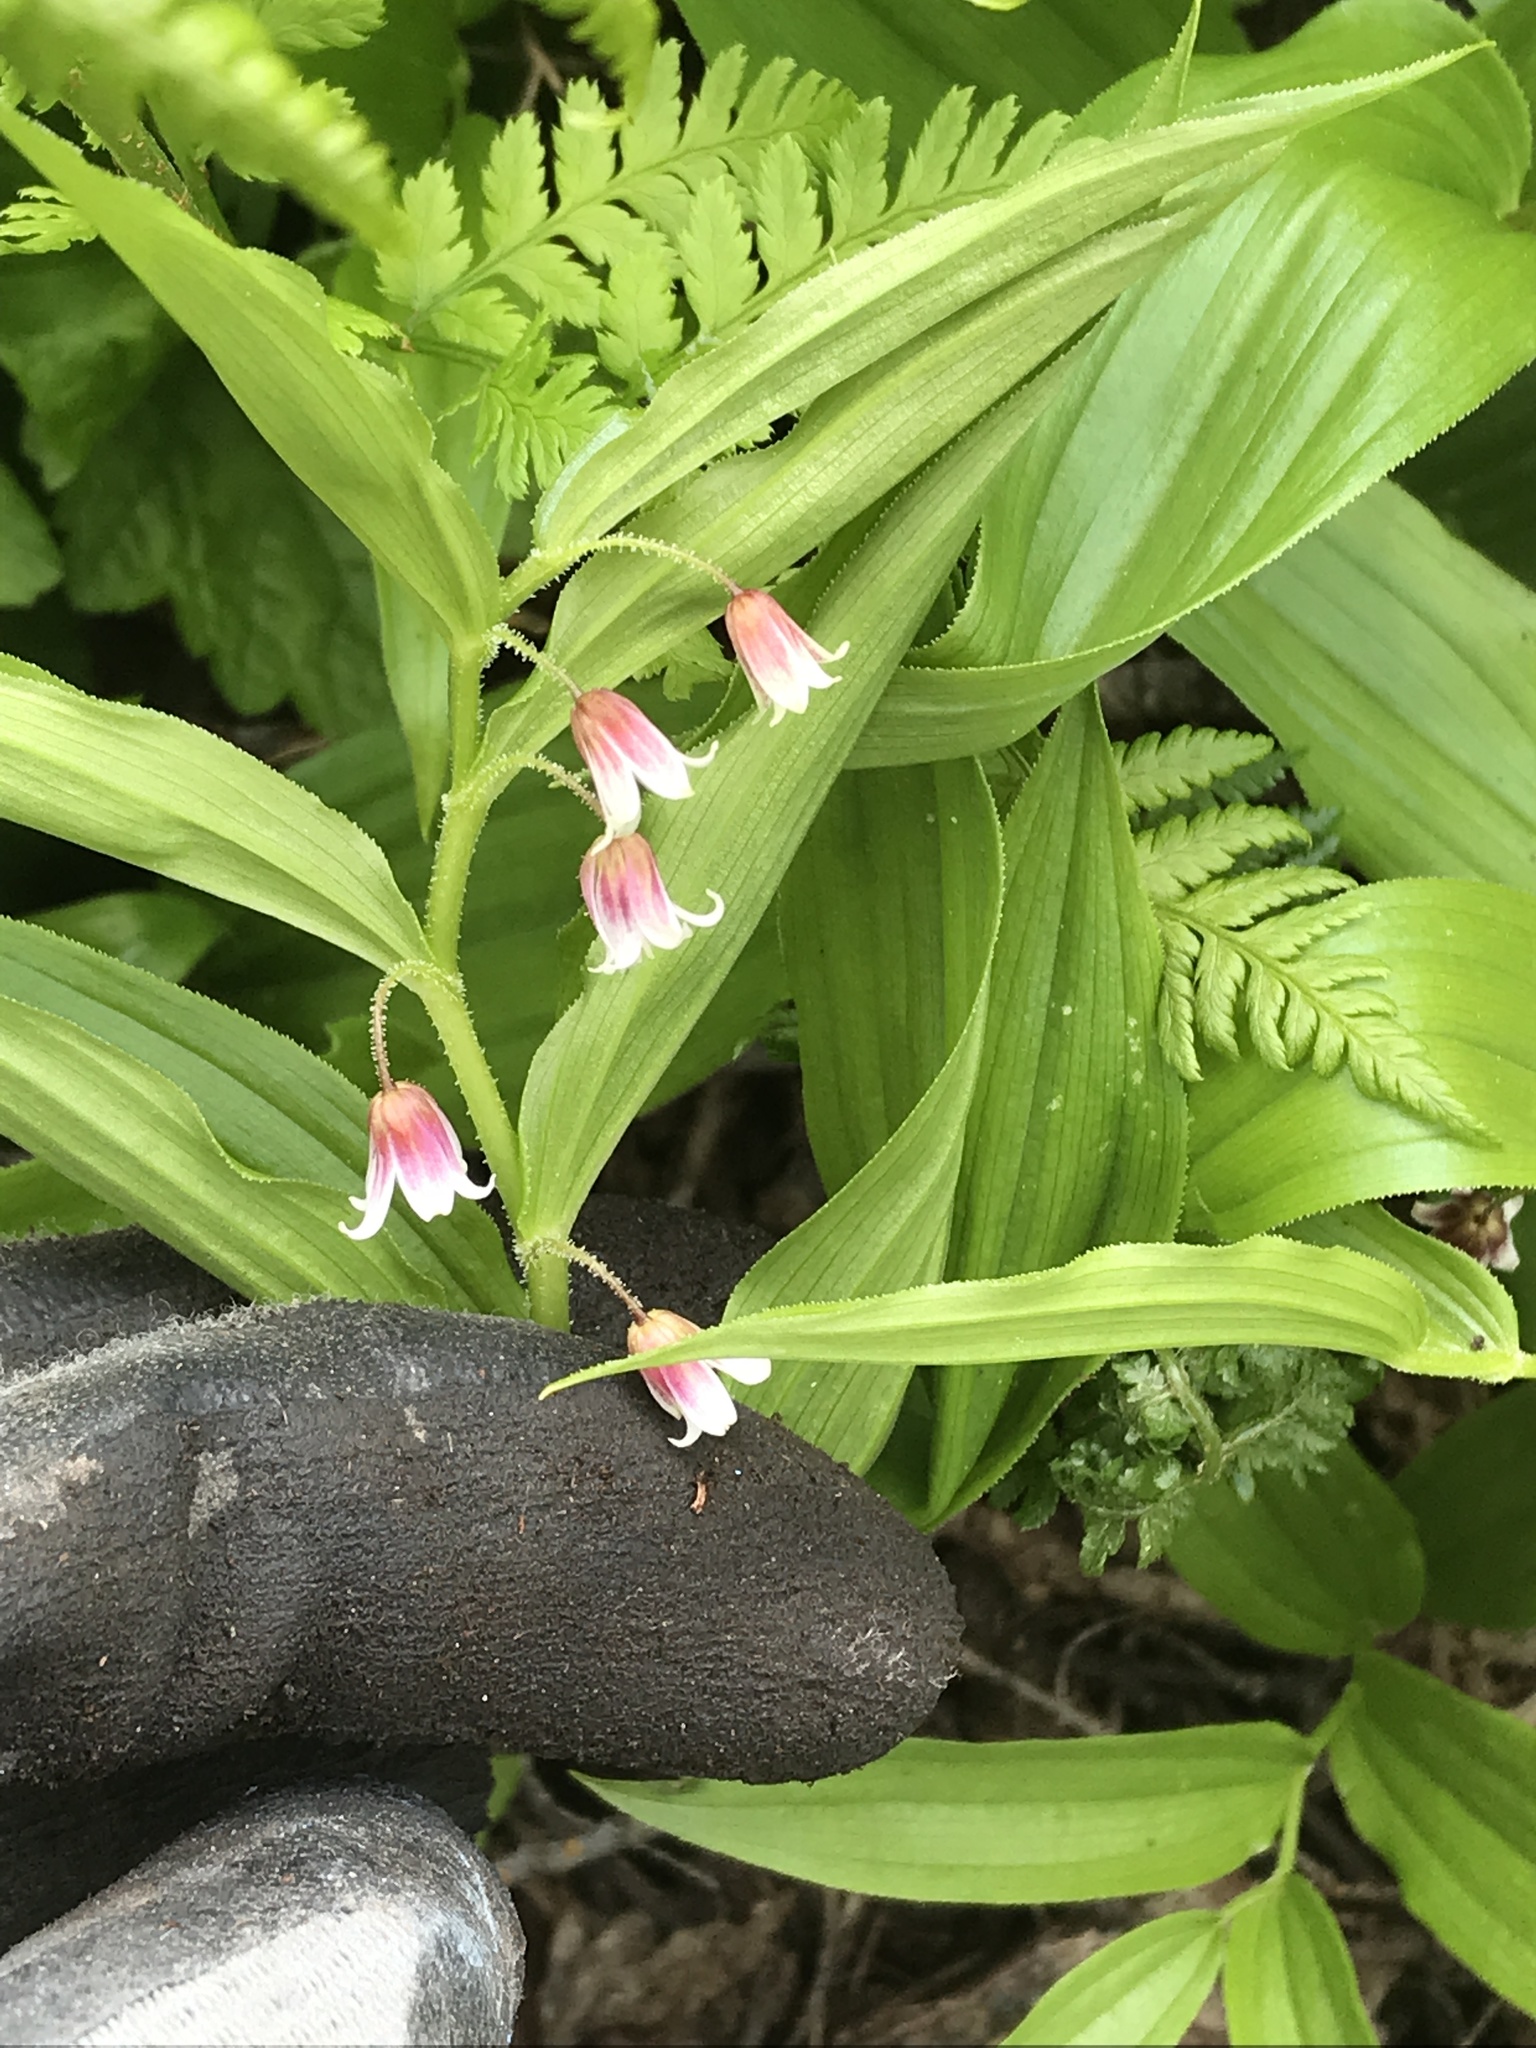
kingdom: Plantae
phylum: Tracheophyta
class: Liliopsida
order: Liliales
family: Liliaceae
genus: Streptopus
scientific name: Streptopus lanceolatus
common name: Rose mandarin
